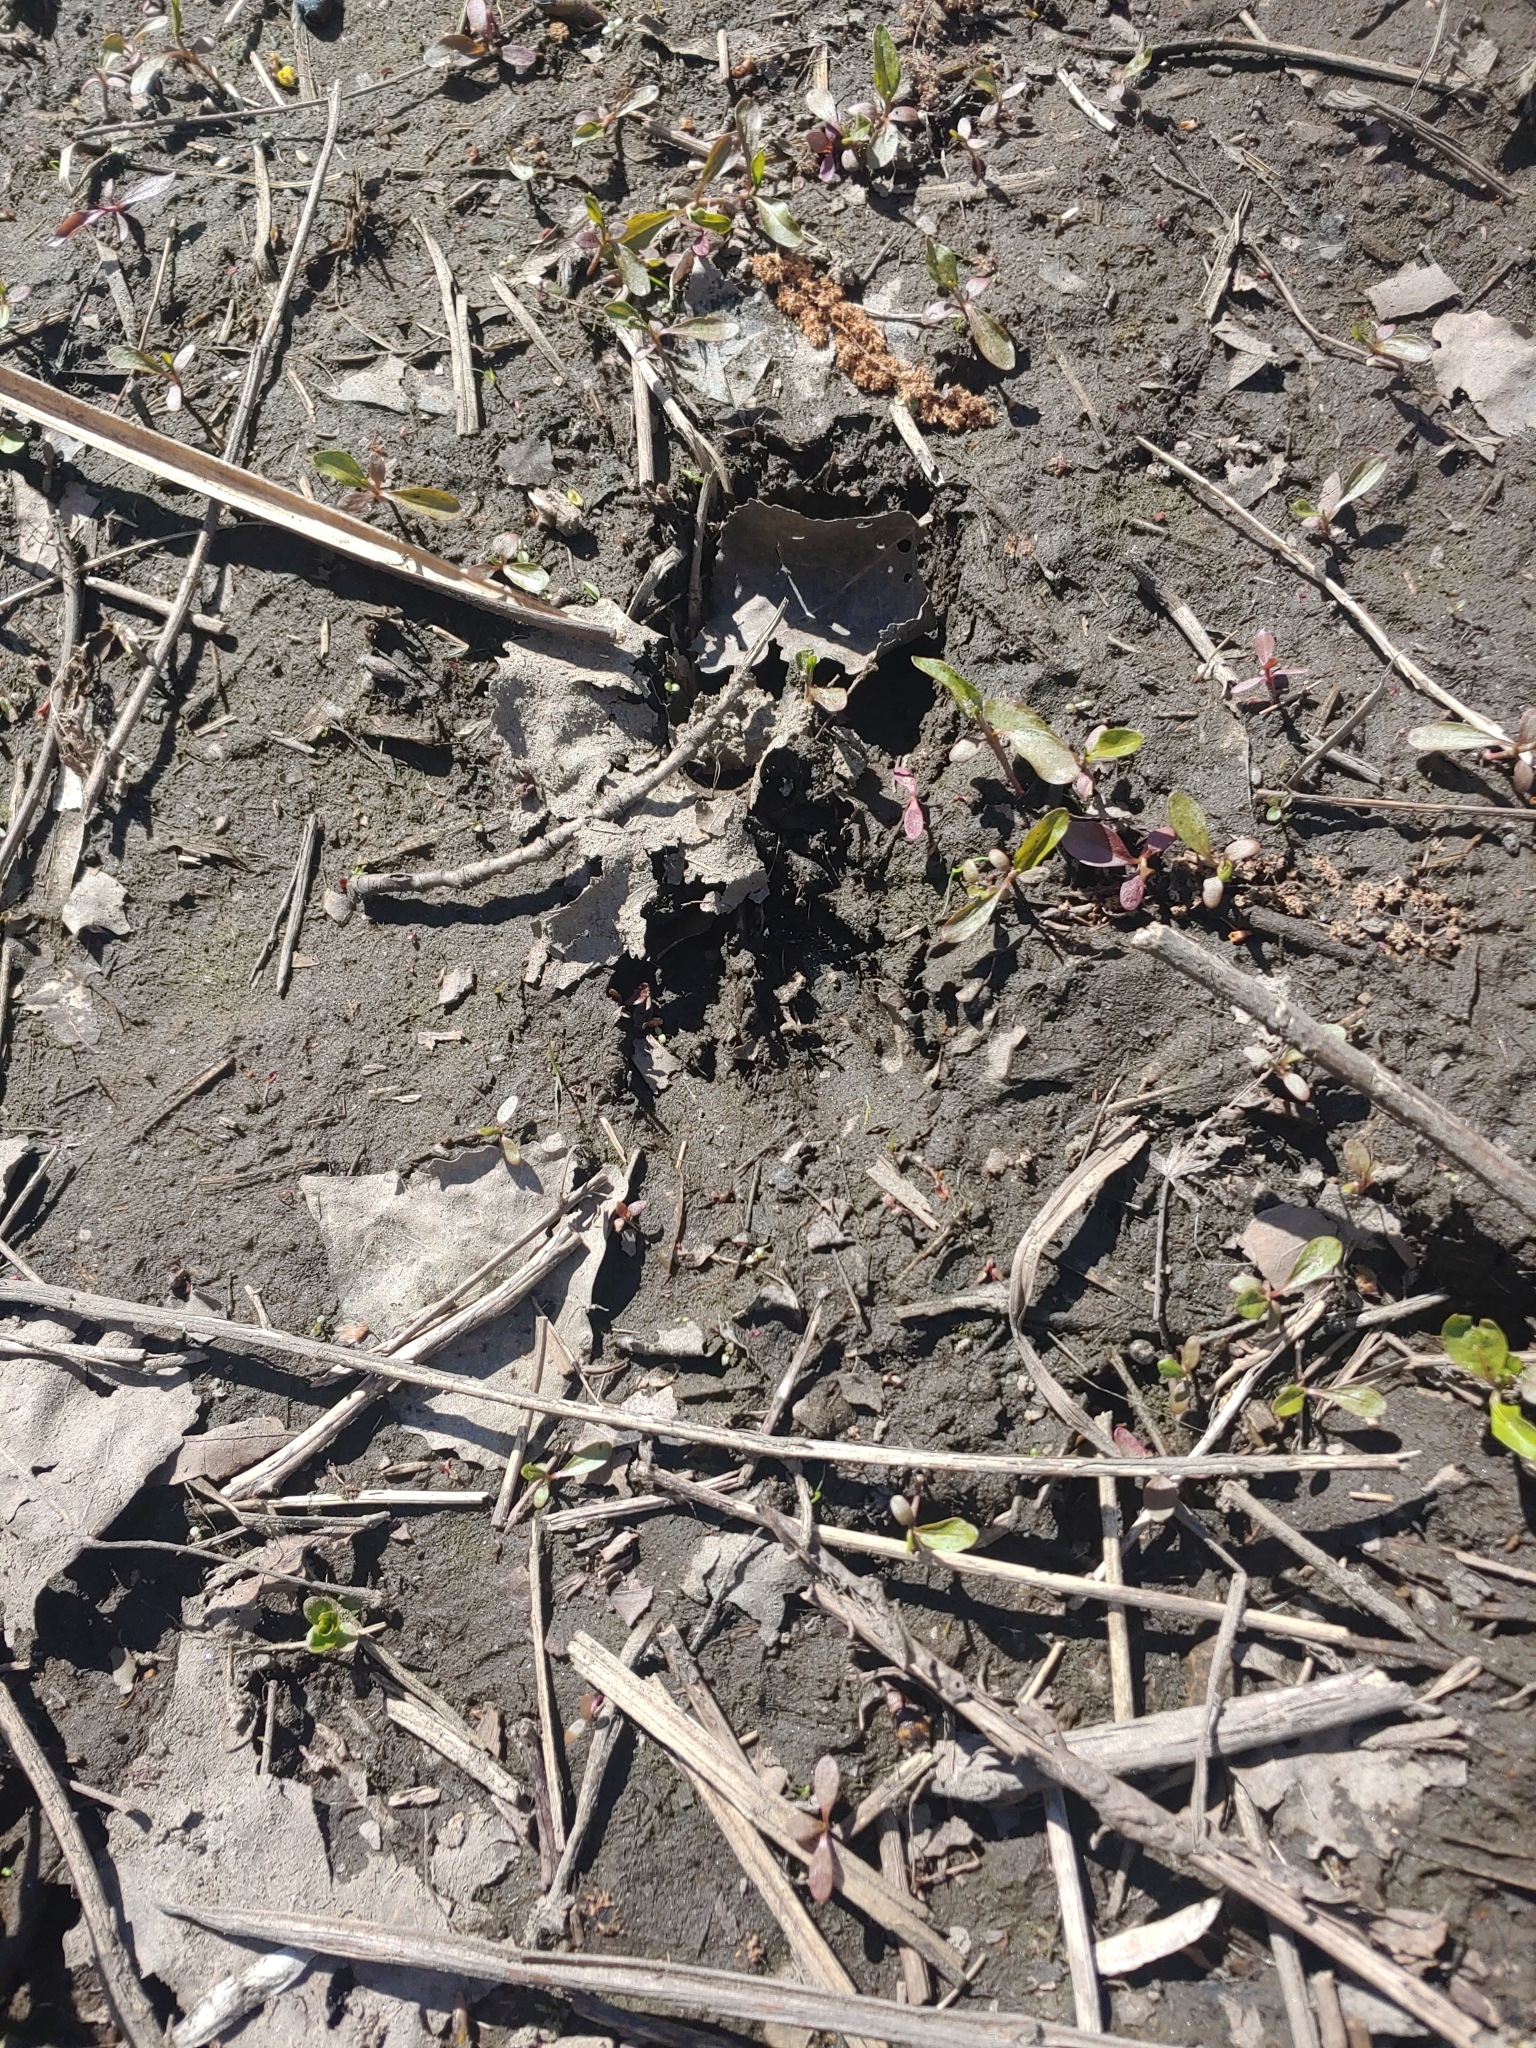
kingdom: Animalia
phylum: Chordata
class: Mammalia
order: Artiodactyla
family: Cervidae
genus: Odocoileus
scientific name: Odocoileus virginianus
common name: White-tailed deer
